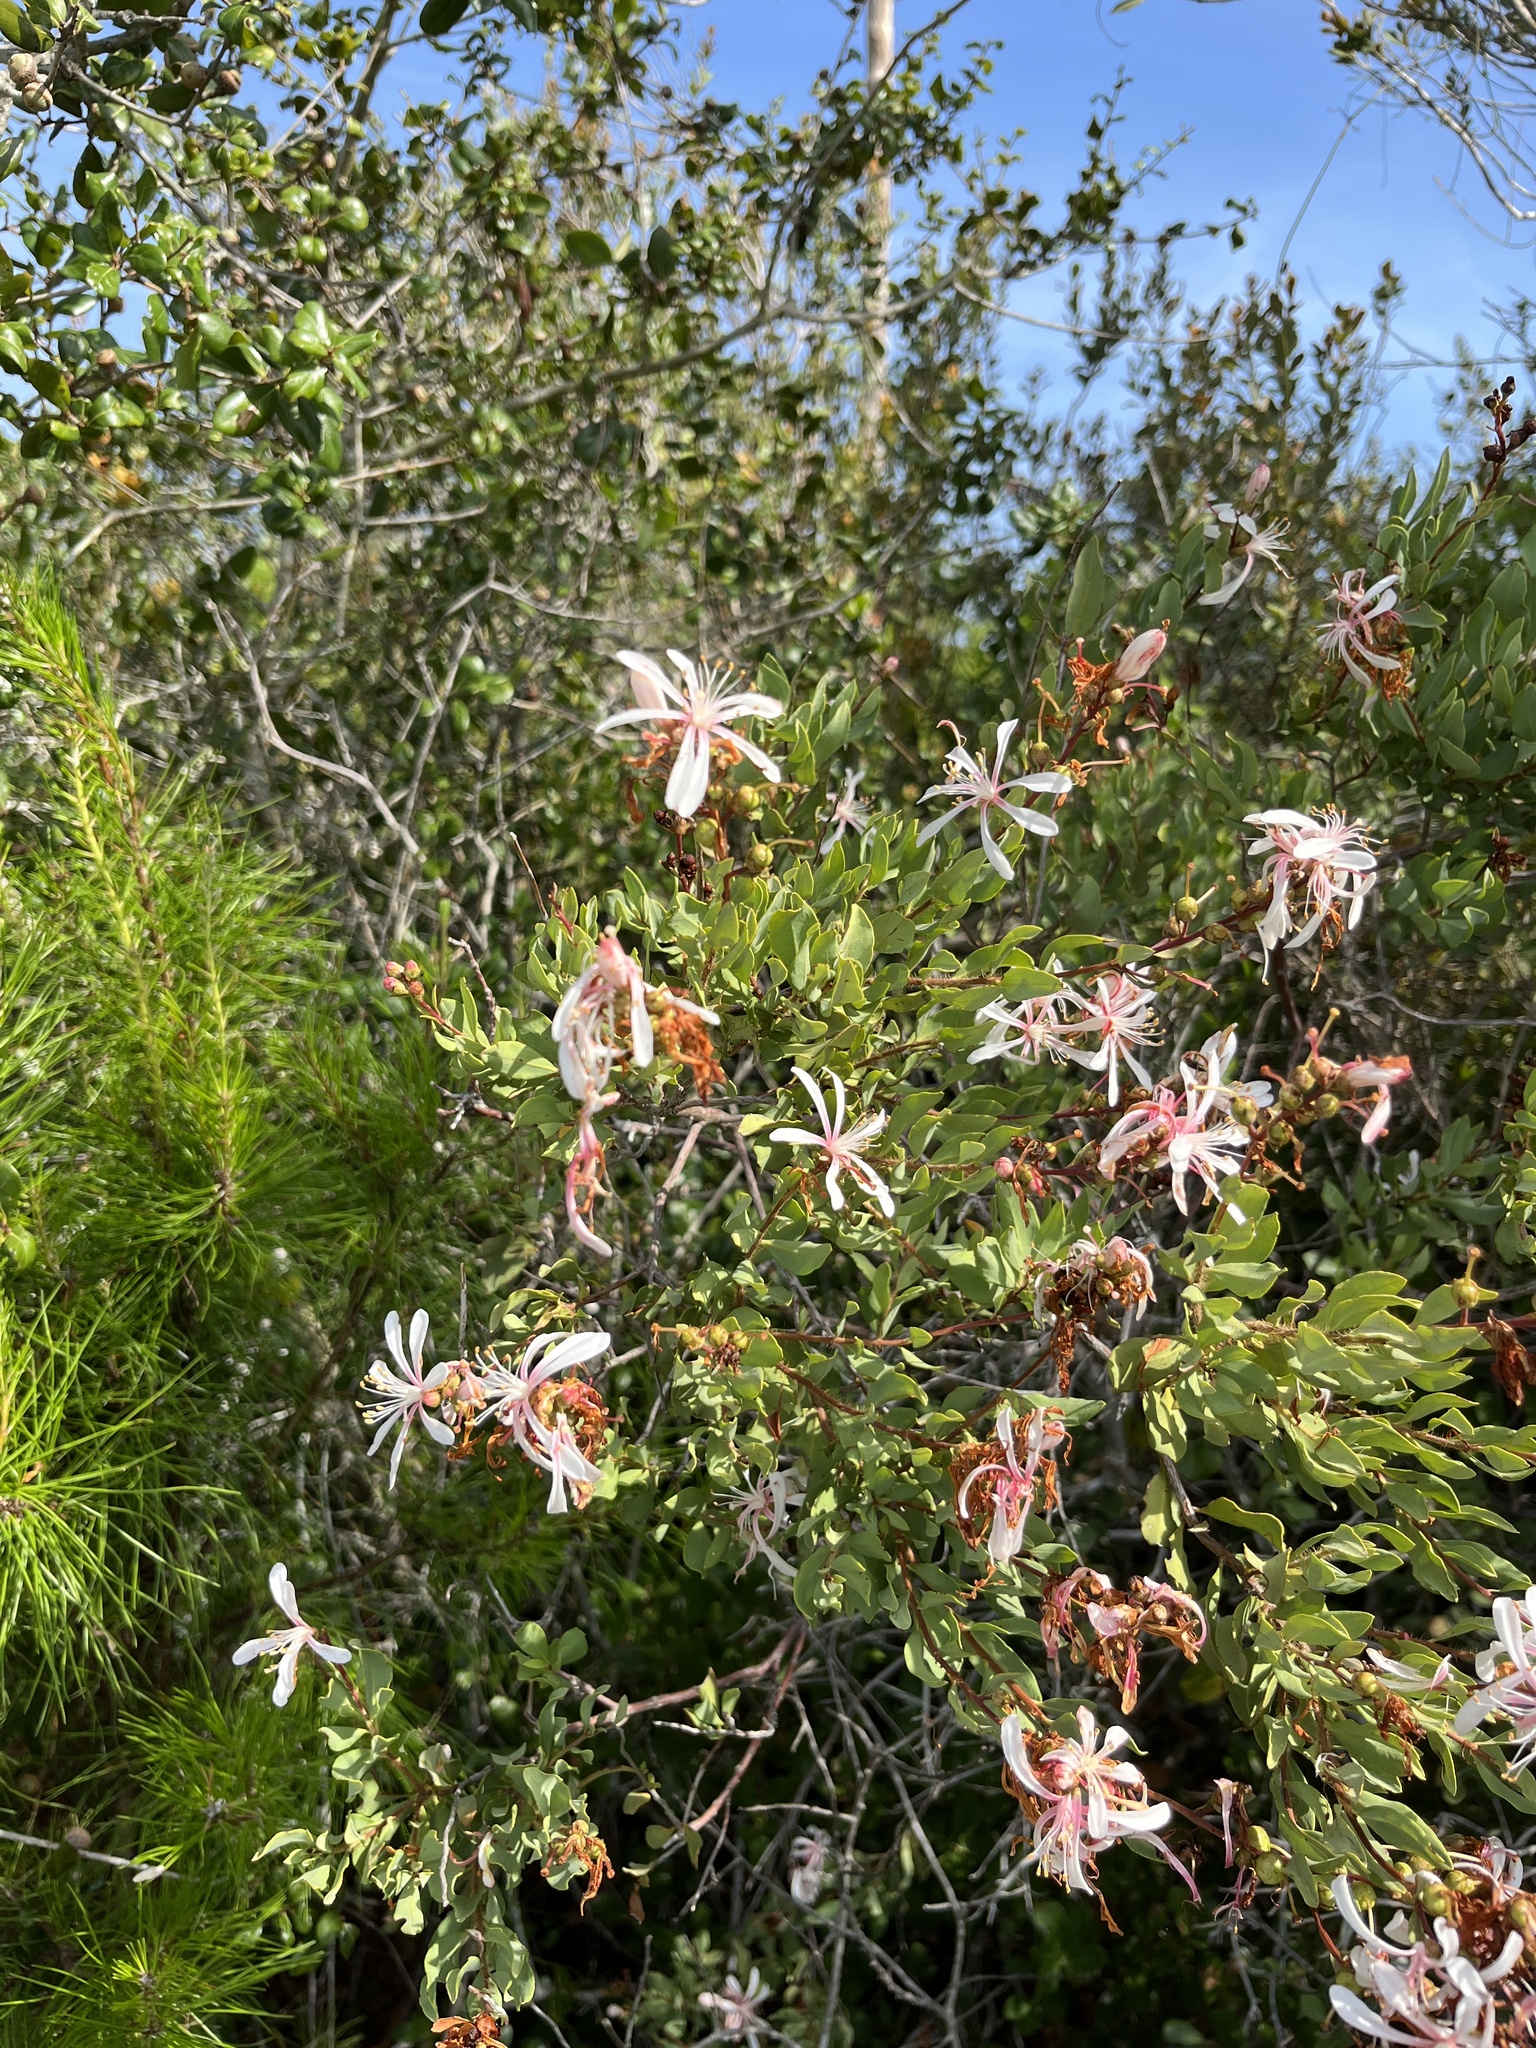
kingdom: Plantae
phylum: Tracheophyta
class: Magnoliopsida
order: Ericales
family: Ericaceae
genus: Bejaria
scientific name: Bejaria racemosa
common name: Tarflower
